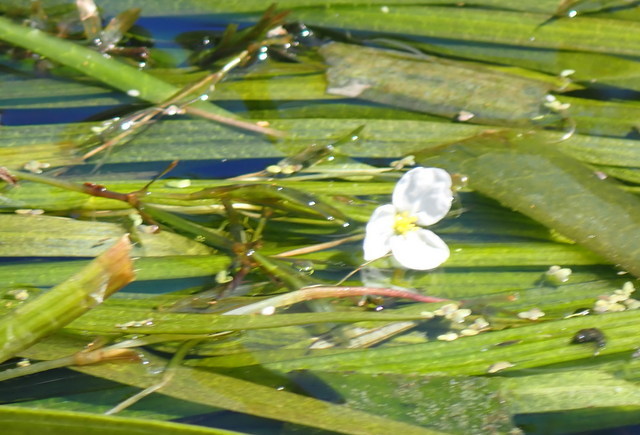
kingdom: Plantae
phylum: Tracheophyta
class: Liliopsida
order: Alismatales
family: Alismataceae
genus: Sagittaria
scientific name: Sagittaria kurziana
